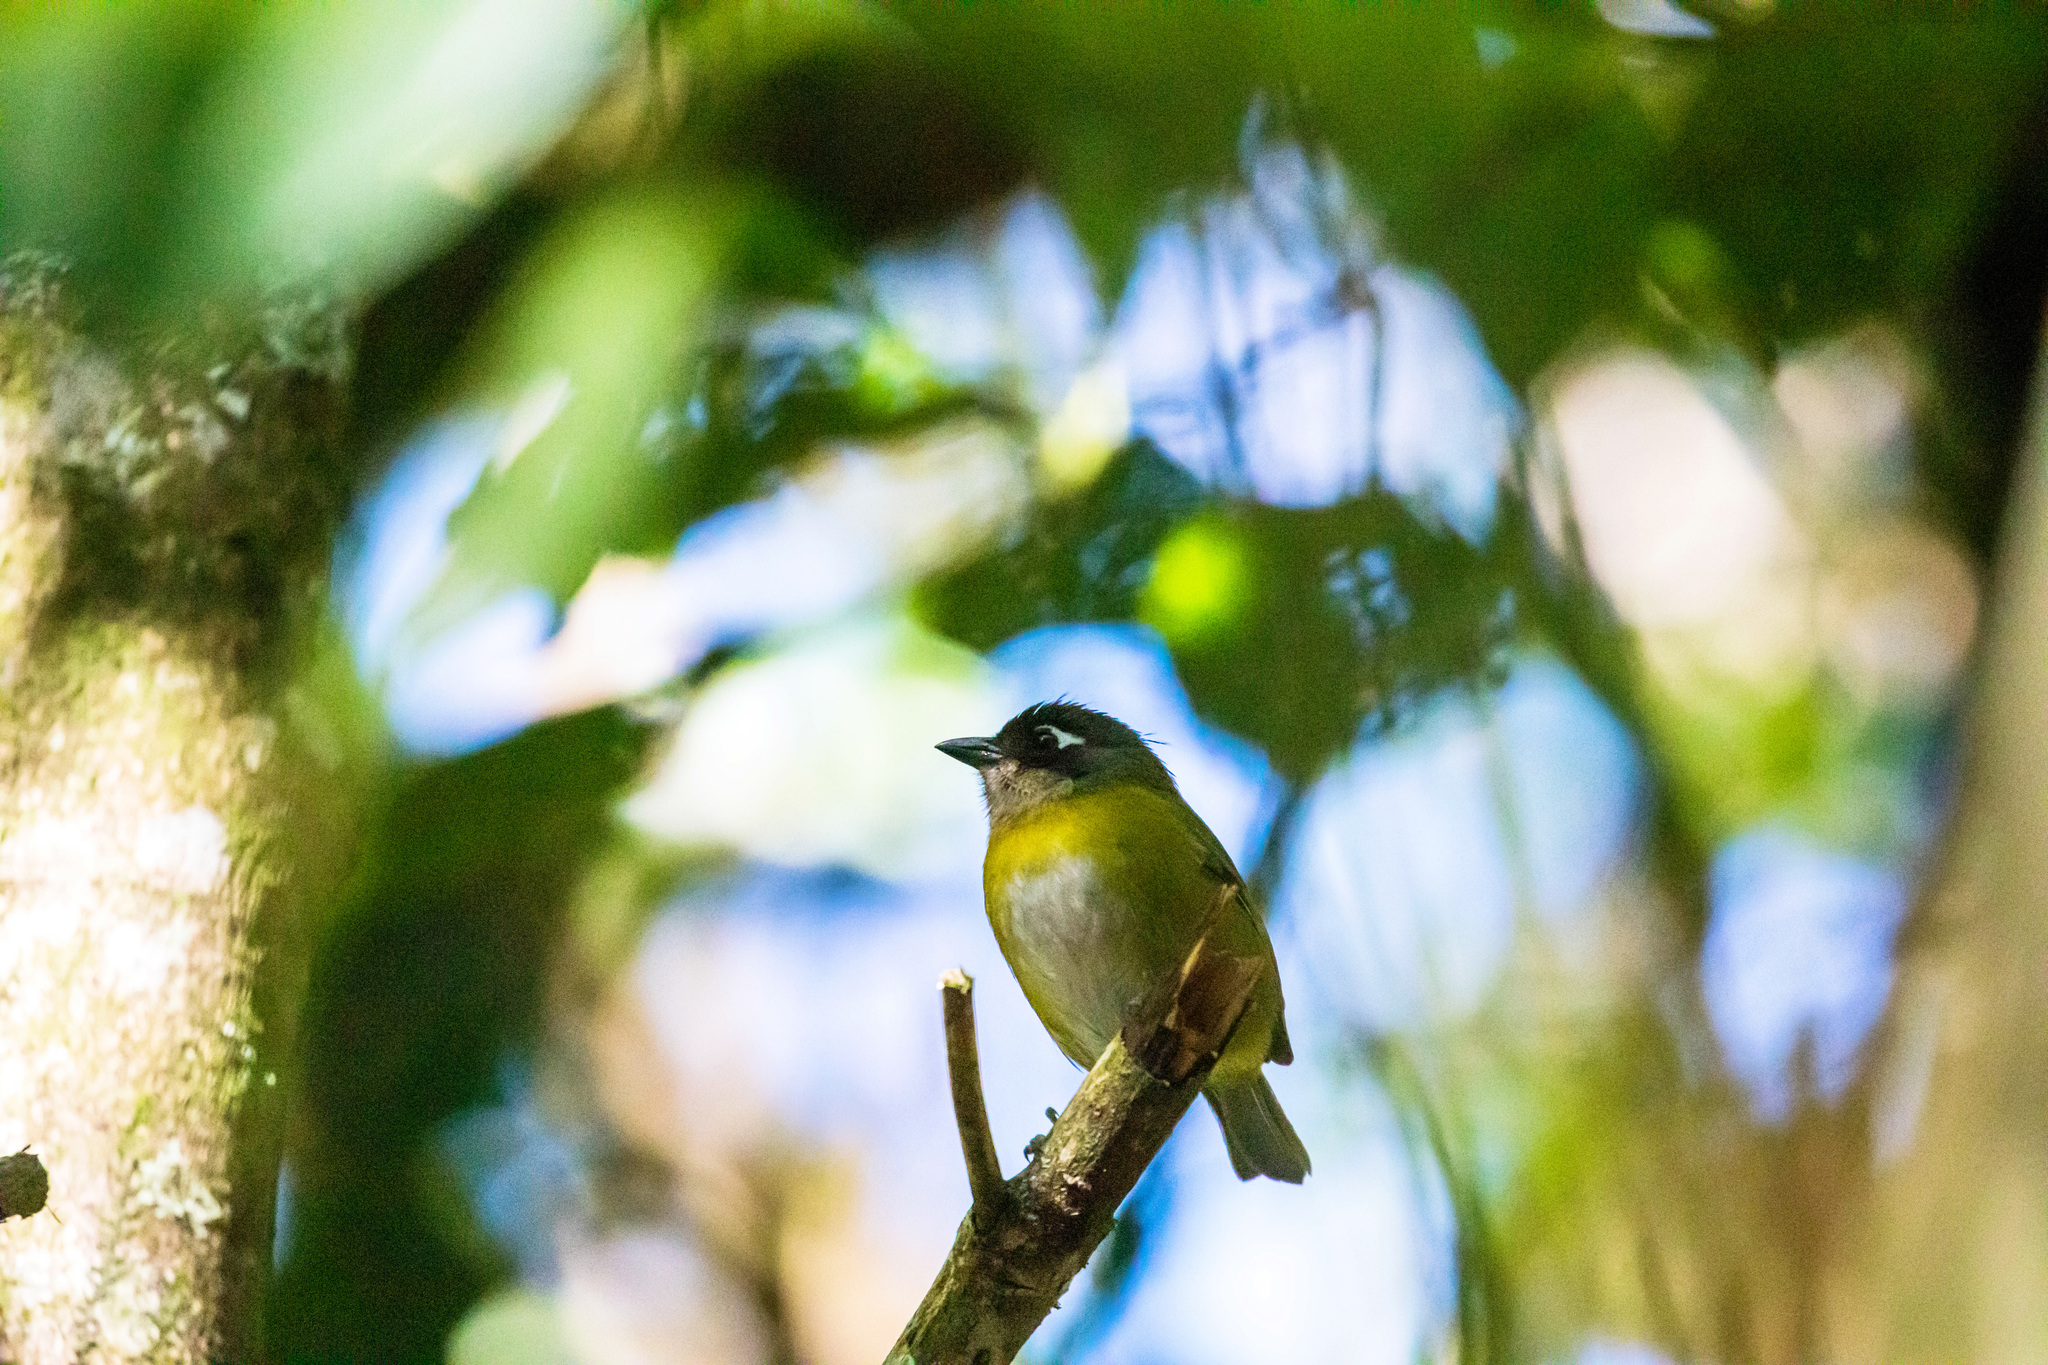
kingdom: Animalia
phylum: Chordata
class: Aves
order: Passeriformes
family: Passerellidae
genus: Chlorospingus
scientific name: Chlorospingus flavopectus
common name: Common chlorospingus
